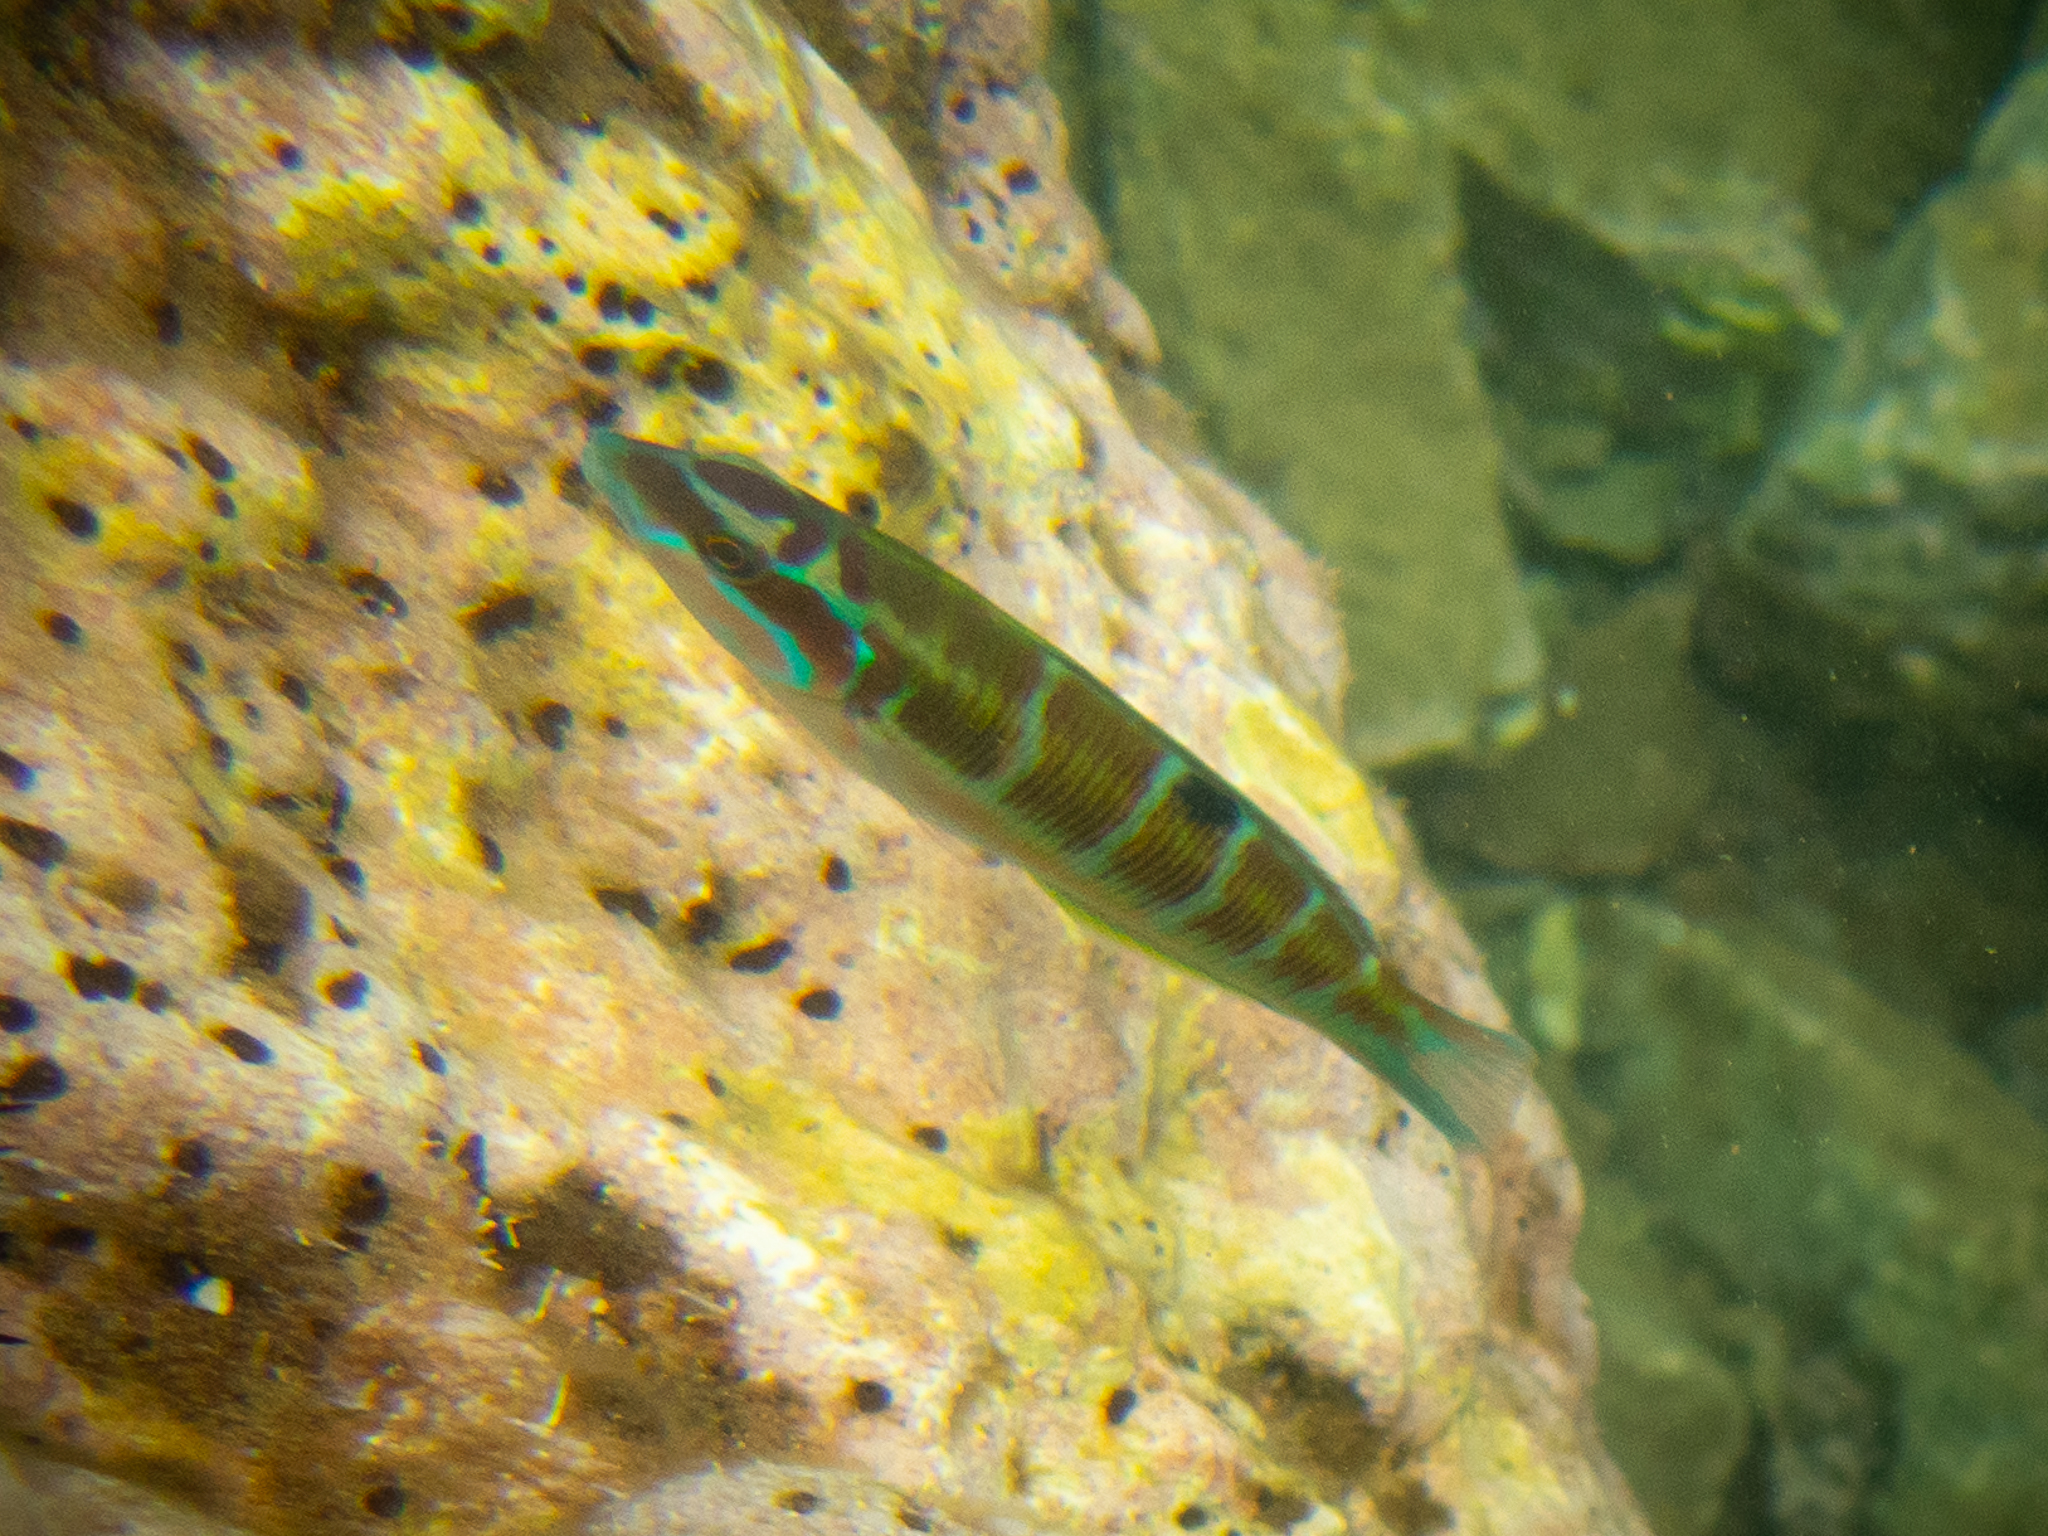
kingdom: Animalia
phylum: Chordata
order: Perciformes
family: Labridae
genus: Thalassoma
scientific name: Thalassoma pavo
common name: Ornate wrasse
